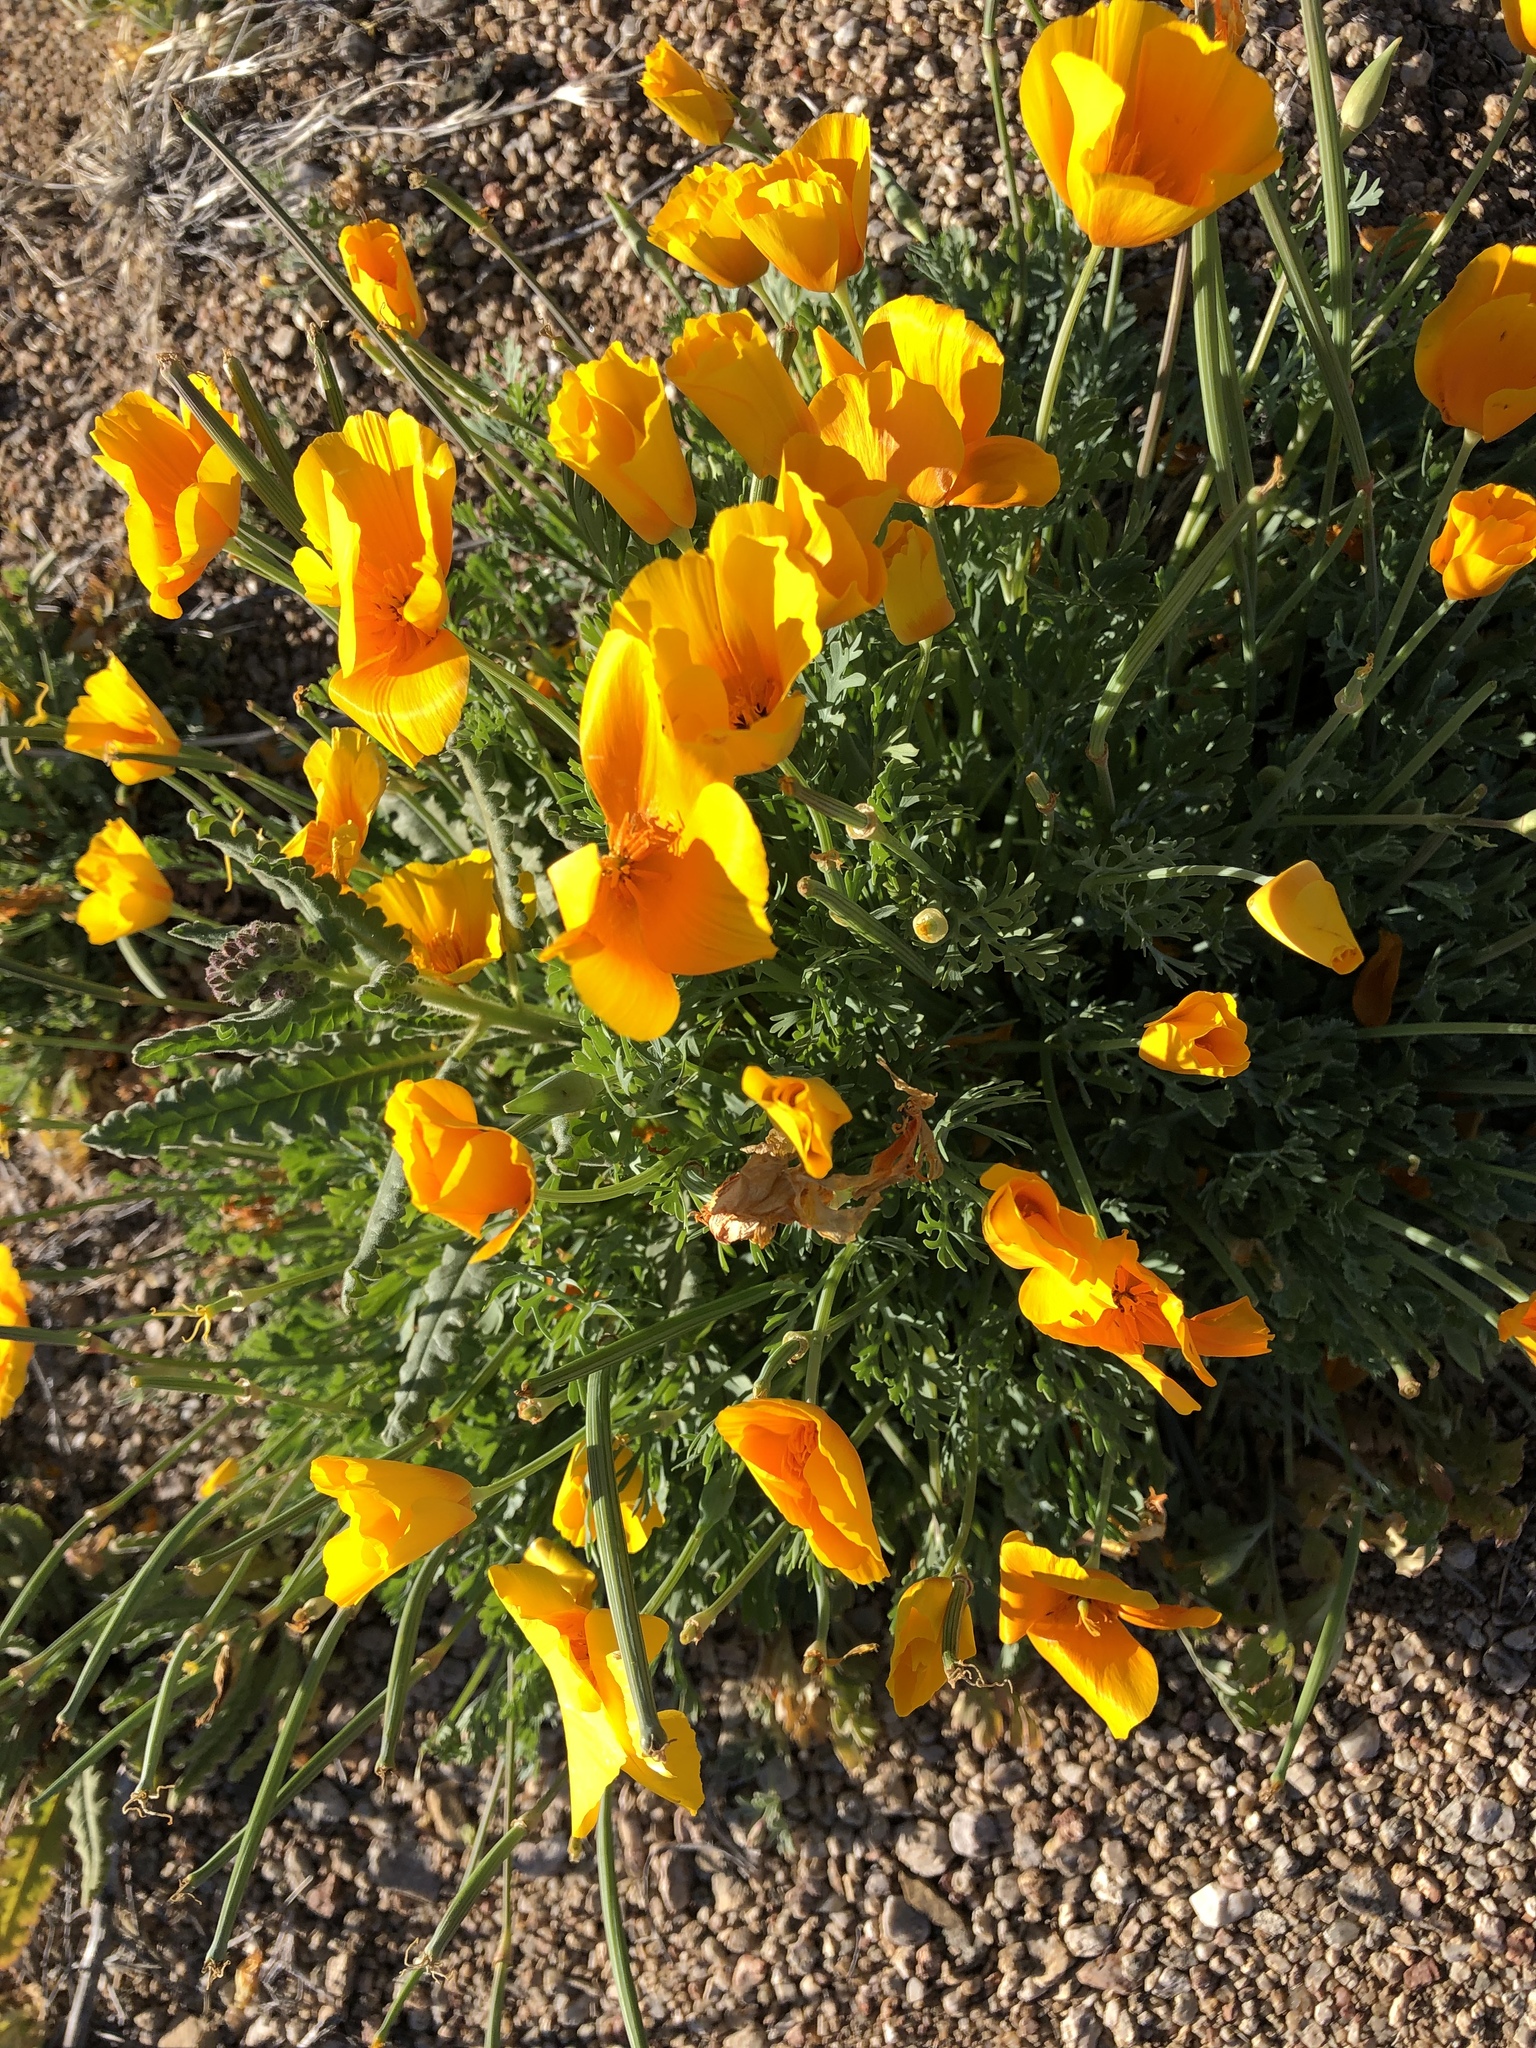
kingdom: Plantae
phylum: Tracheophyta
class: Magnoliopsida
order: Ranunculales
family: Papaveraceae
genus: Eschscholzia
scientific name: Eschscholzia californica
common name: California poppy
